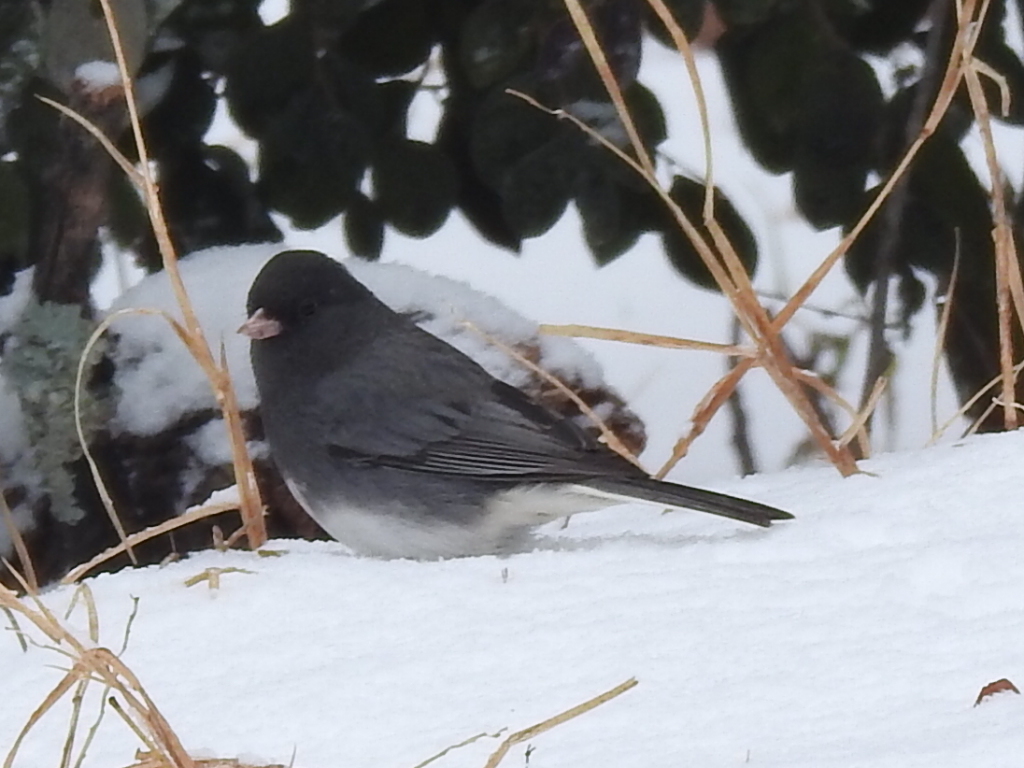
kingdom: Animalia
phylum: Chordata
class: Aves
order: Passeriformes
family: Passerellidae
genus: Junco
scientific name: Junco hyemalis
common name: Dark-eyed junco
